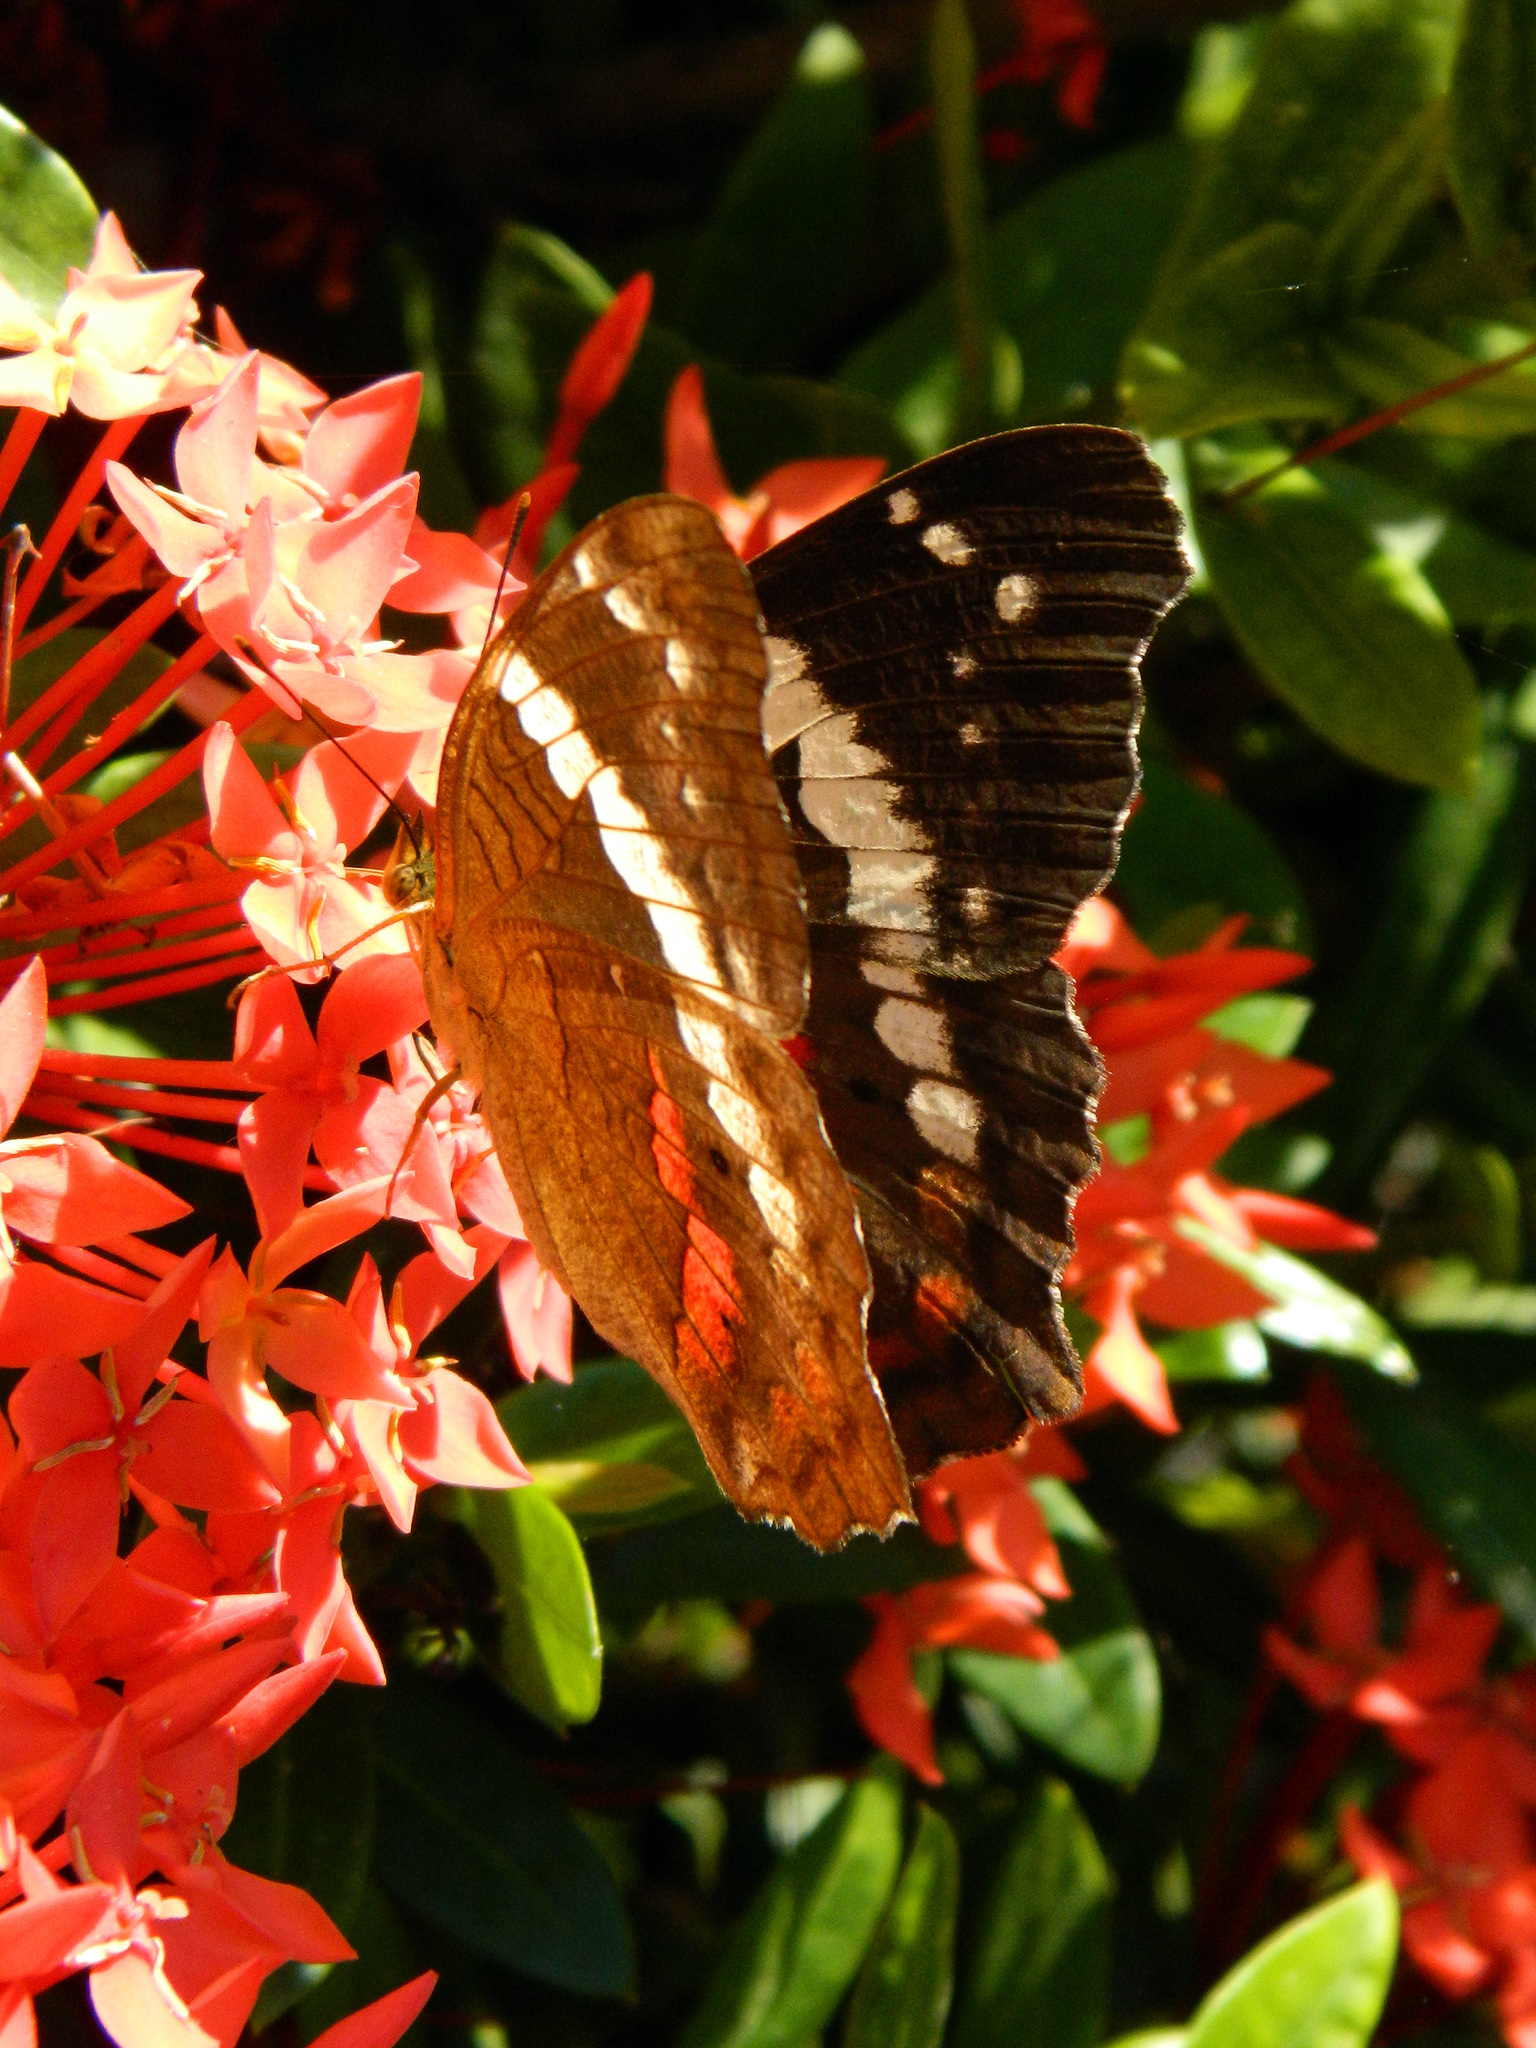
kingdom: Animalia
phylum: Arthropoda
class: Insecta
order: Lepidoptera
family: Nymphalidae
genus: Anartia
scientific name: Anartia fatima
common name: Banded peacock
